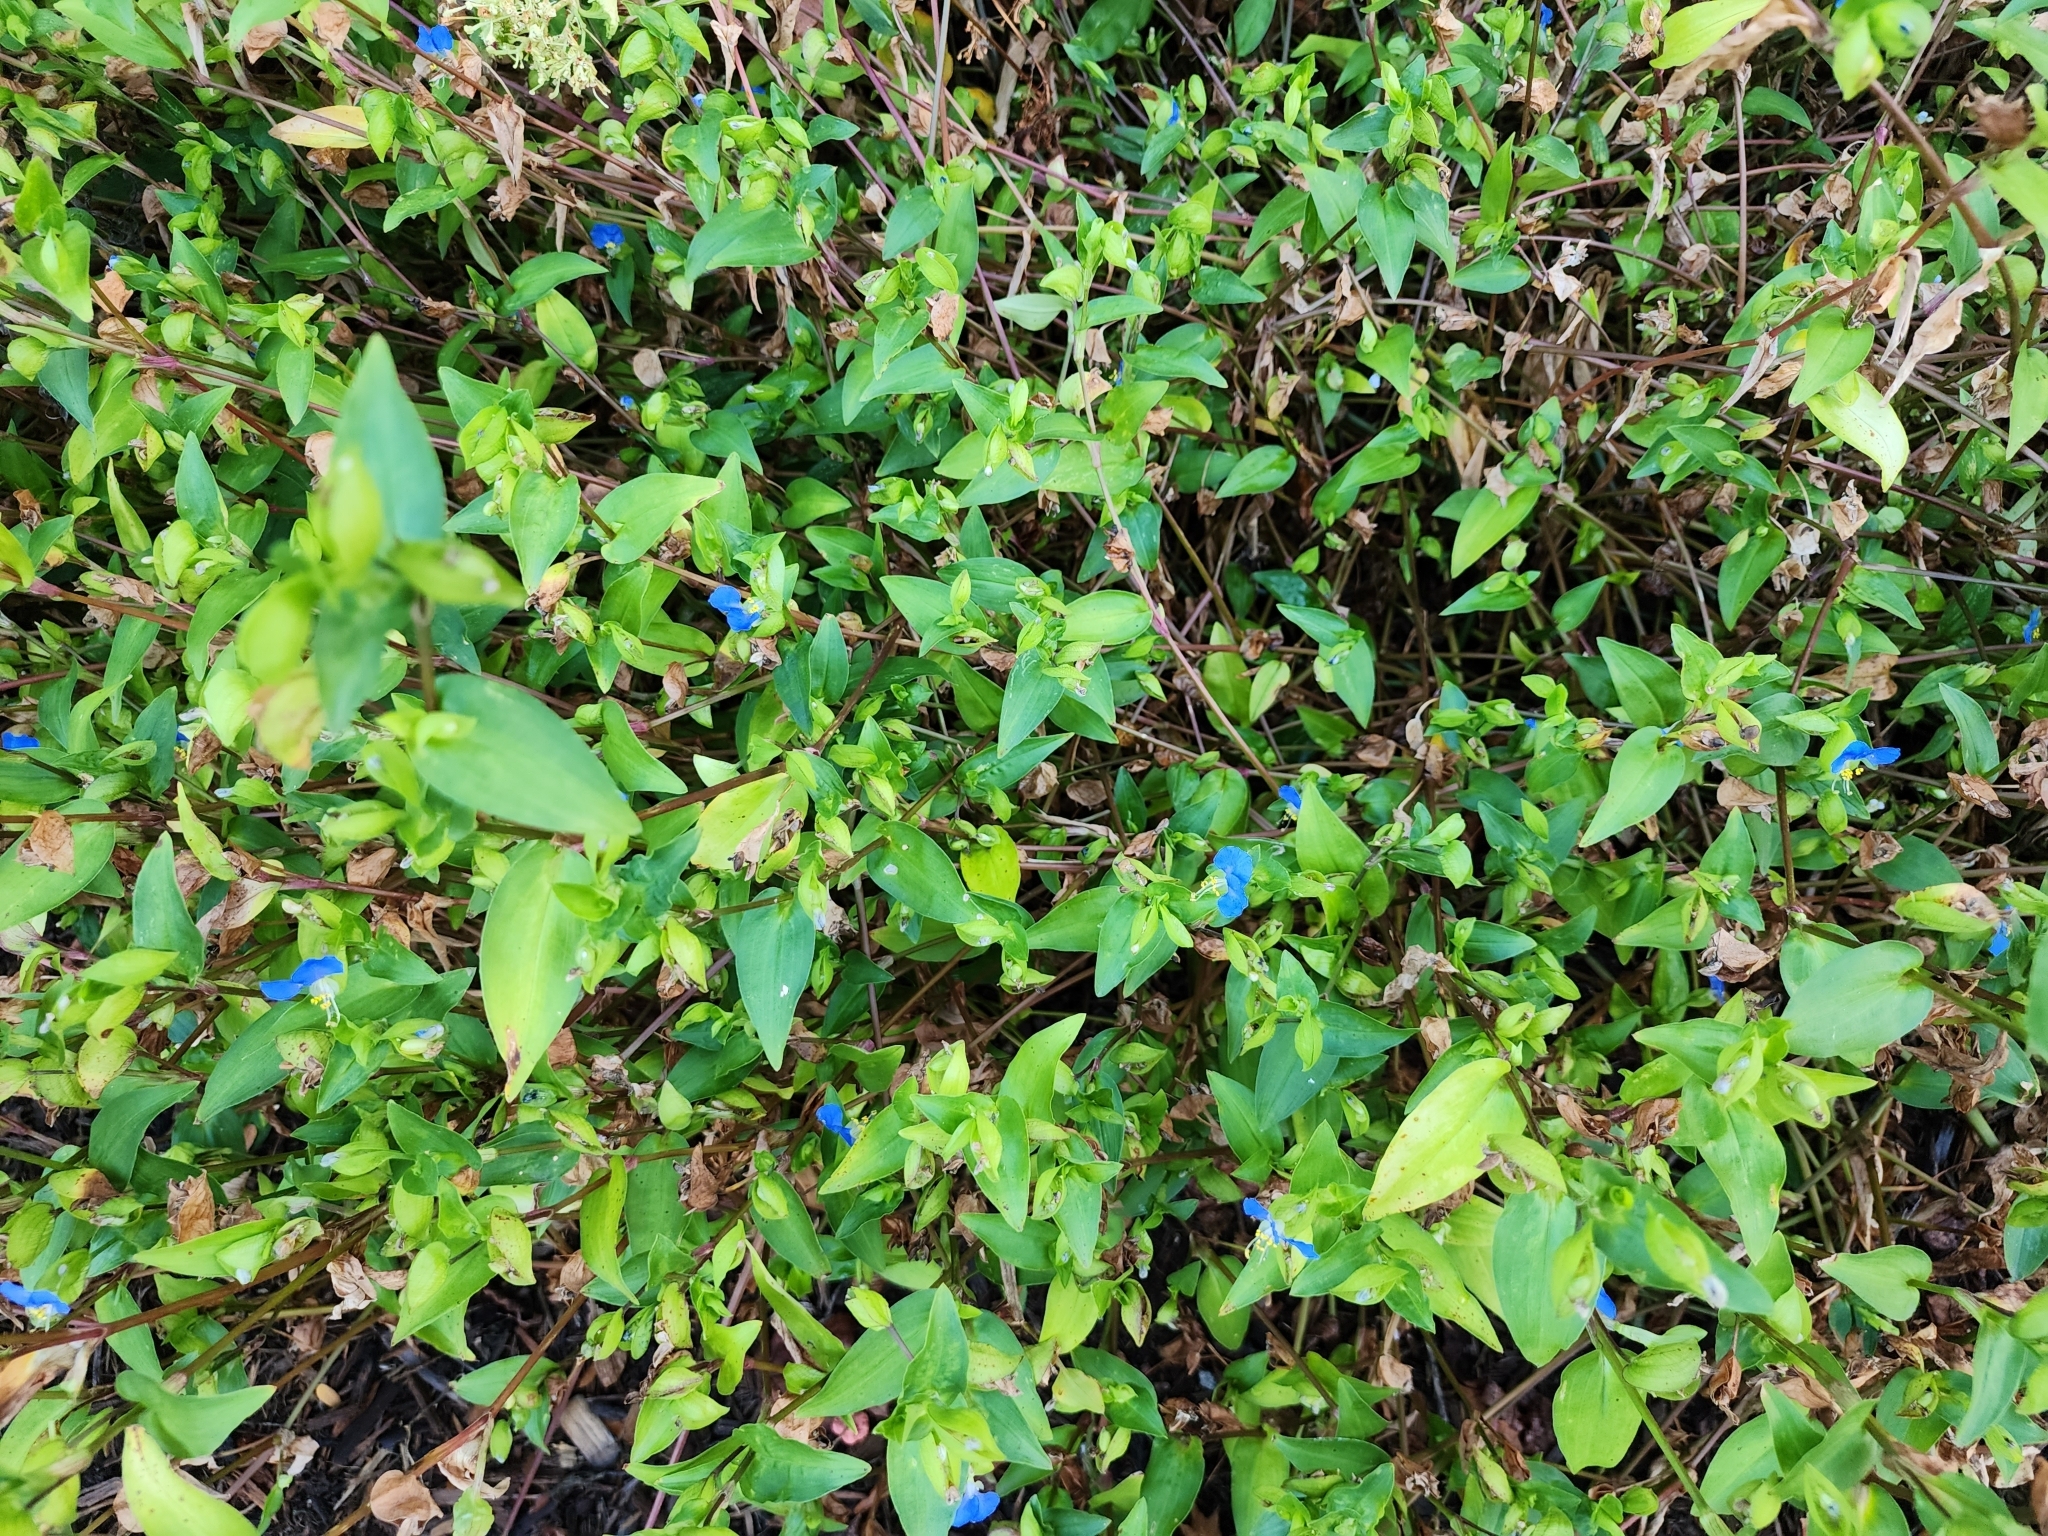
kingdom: Plantae
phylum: Tracheophyta
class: Liliopsida
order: Commelinales
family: Commelinaceae
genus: Commelina
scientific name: Commelina communis
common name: Asiatic dayflower
